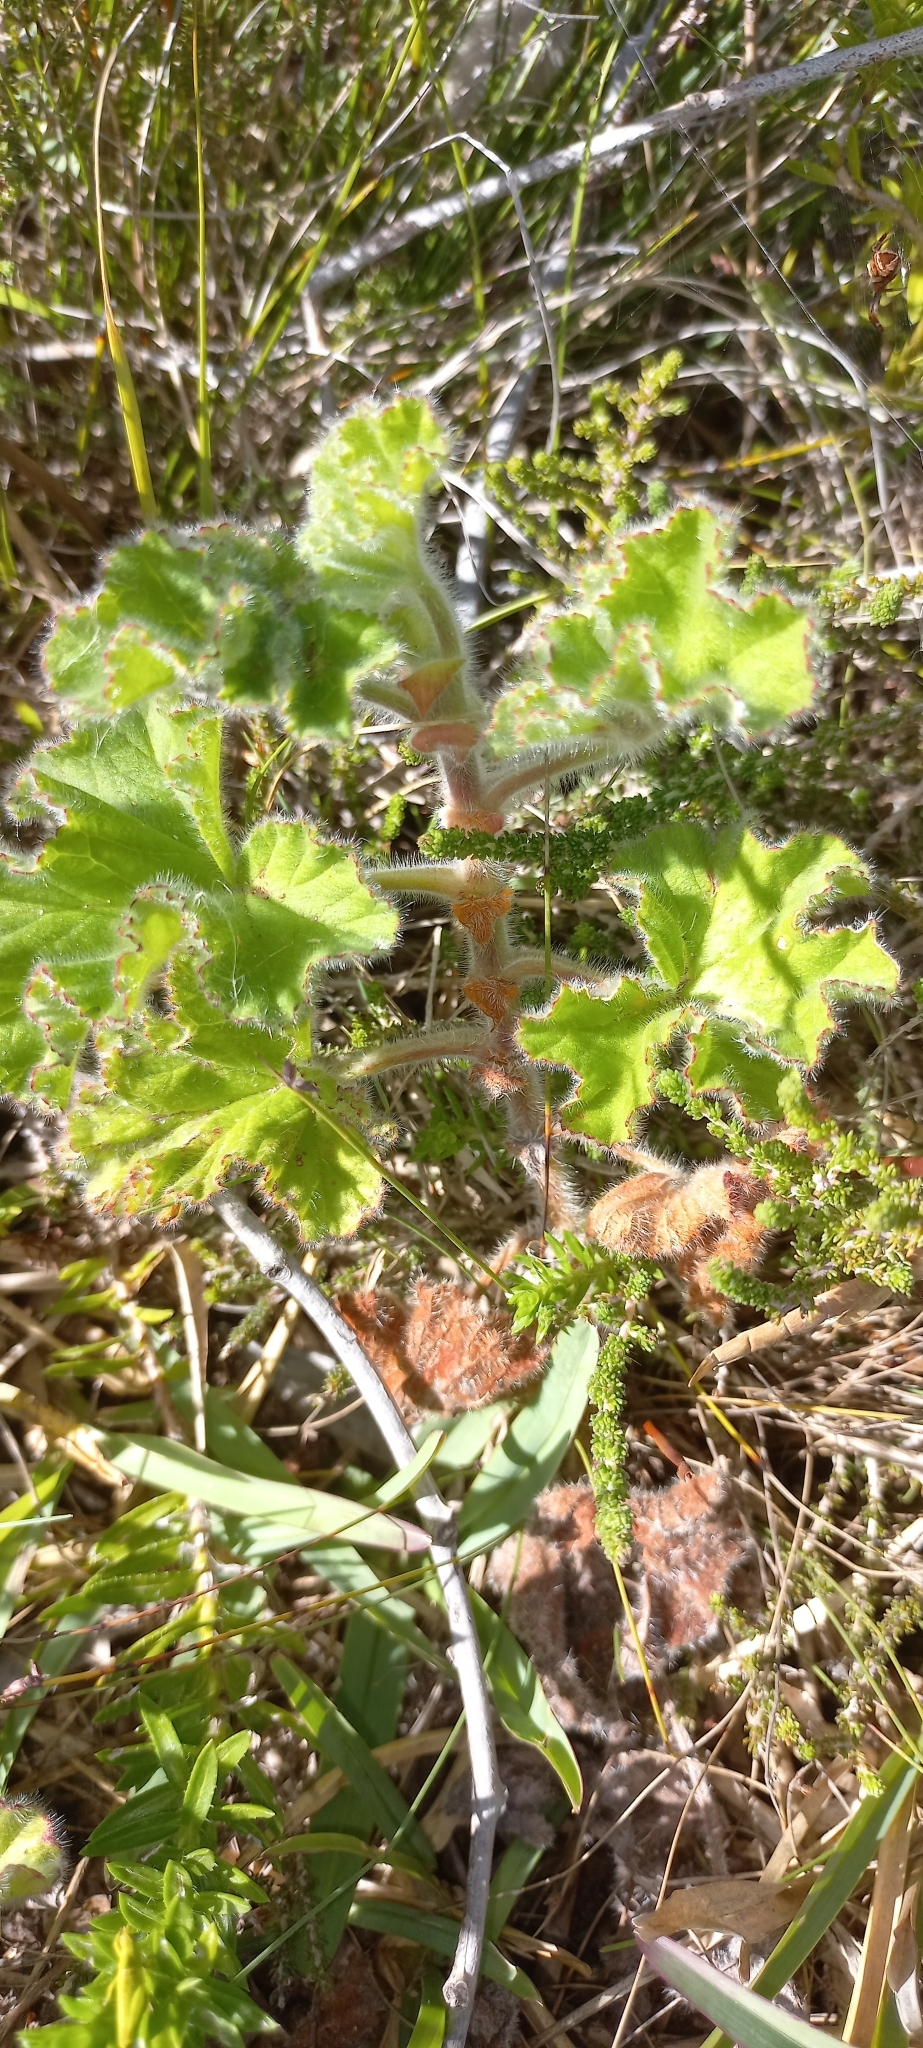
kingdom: Plantae
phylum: Tracheophyta
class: Magnoliopsida
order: Geraniales
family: Geraniaceae
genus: Pelargonium
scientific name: Pelargonium capitatum
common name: Rose scented geranium
